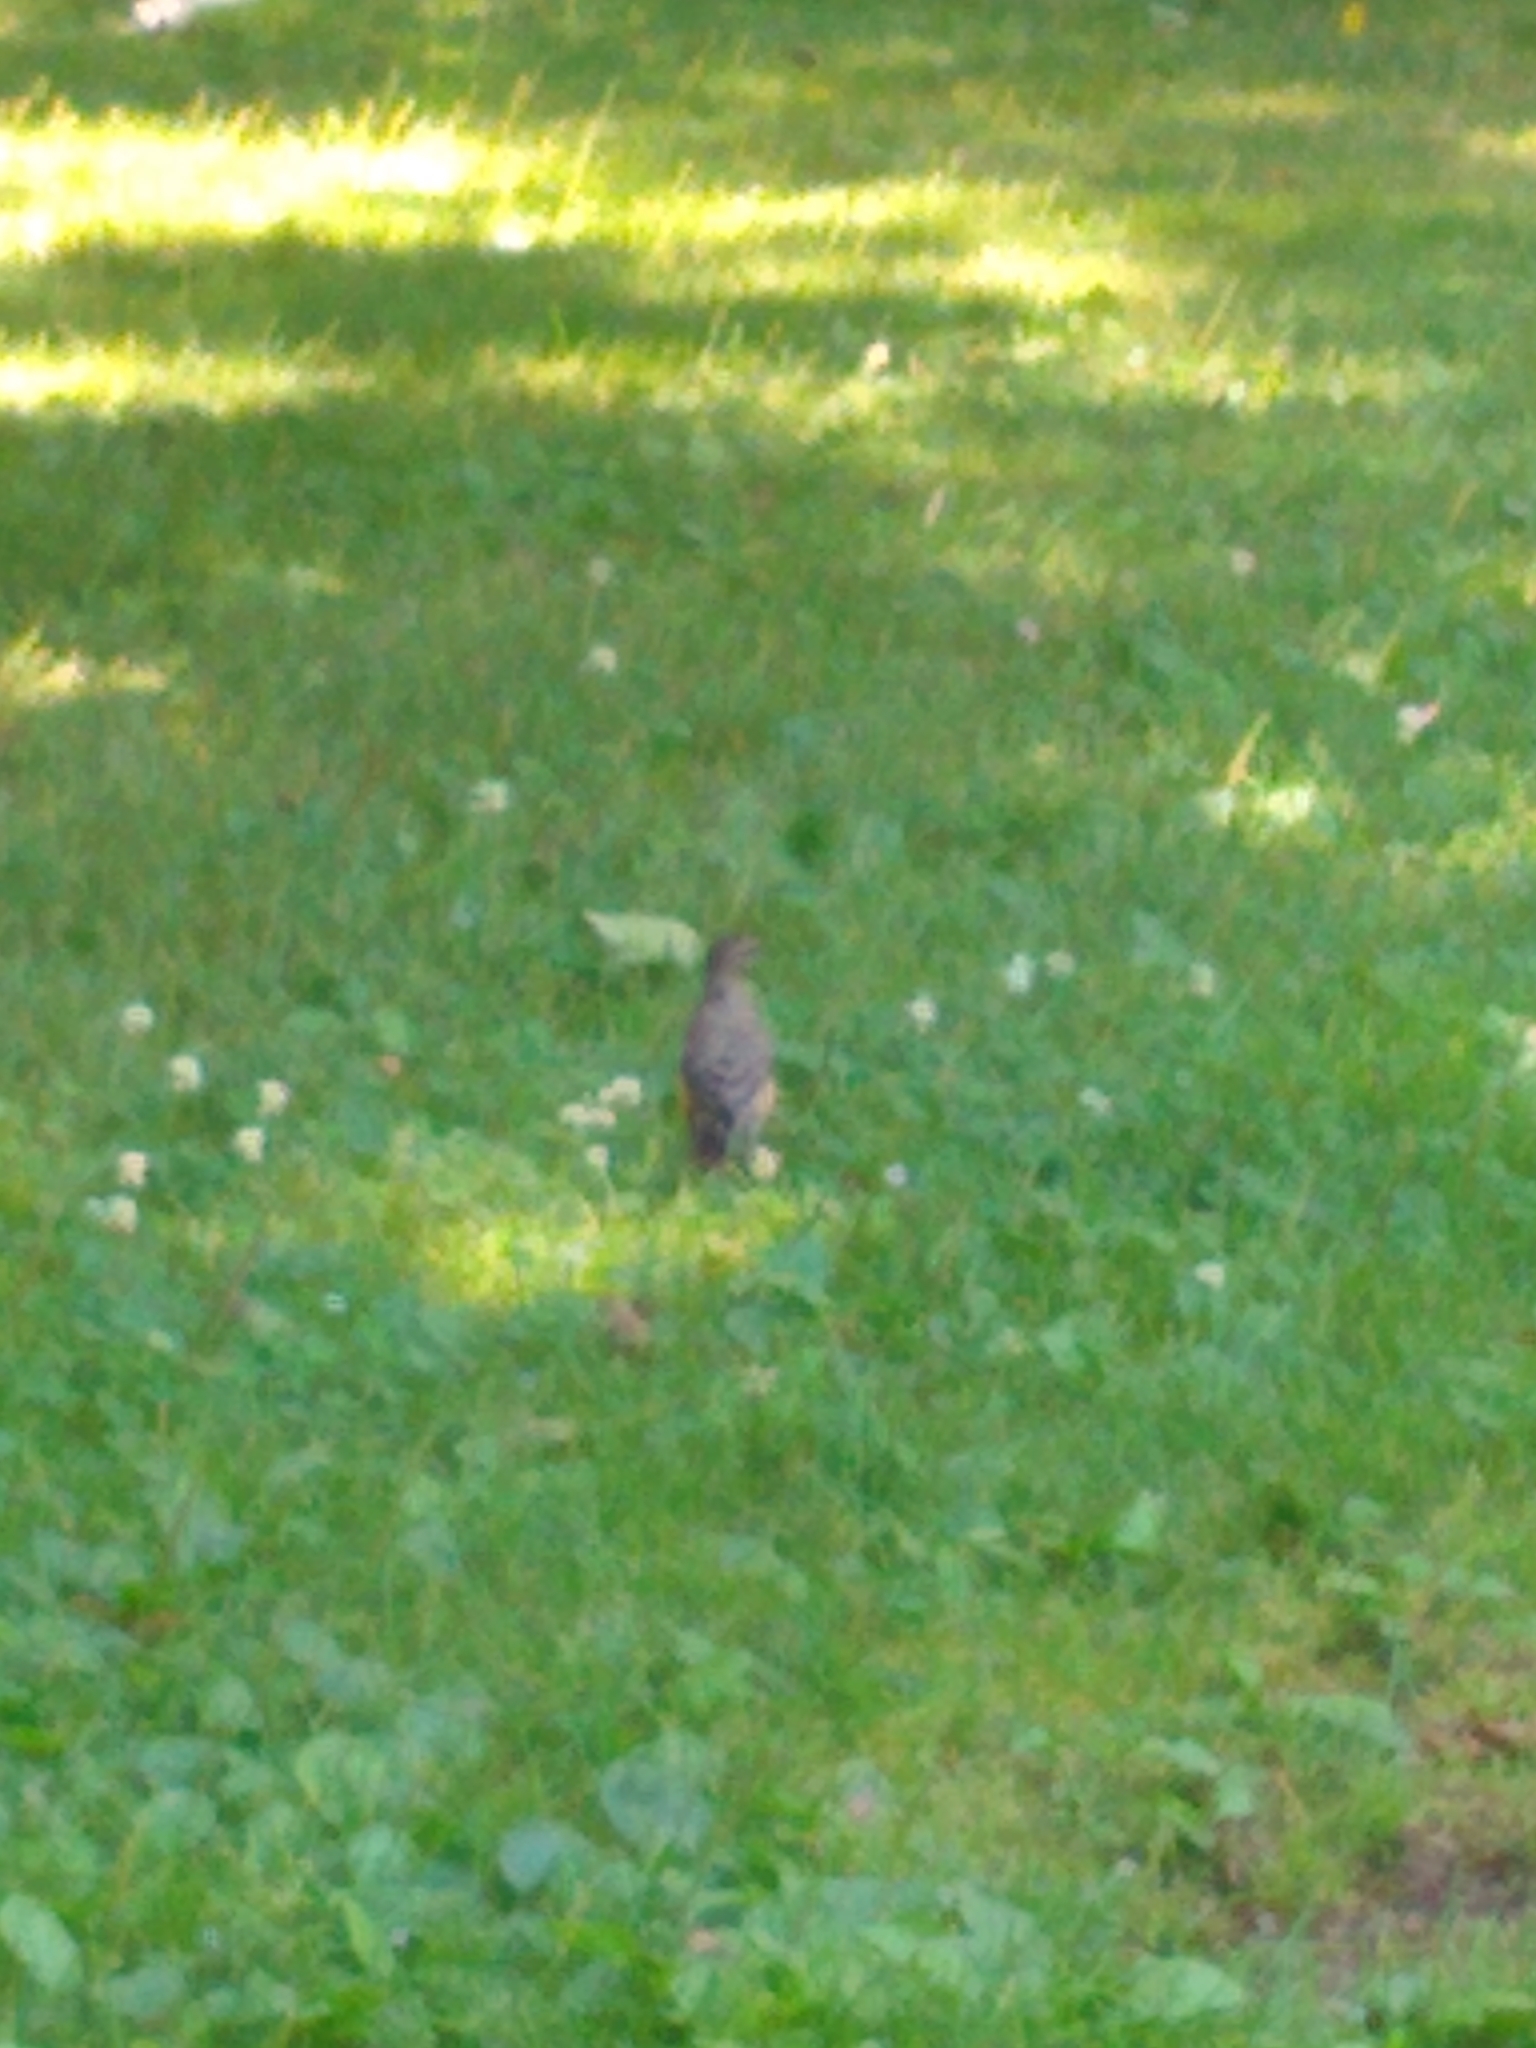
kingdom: Animalia
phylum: Chordata
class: Aves
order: Passeriformes
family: Turdidae
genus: Turdus
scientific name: Turdus migratorius
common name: American robin
